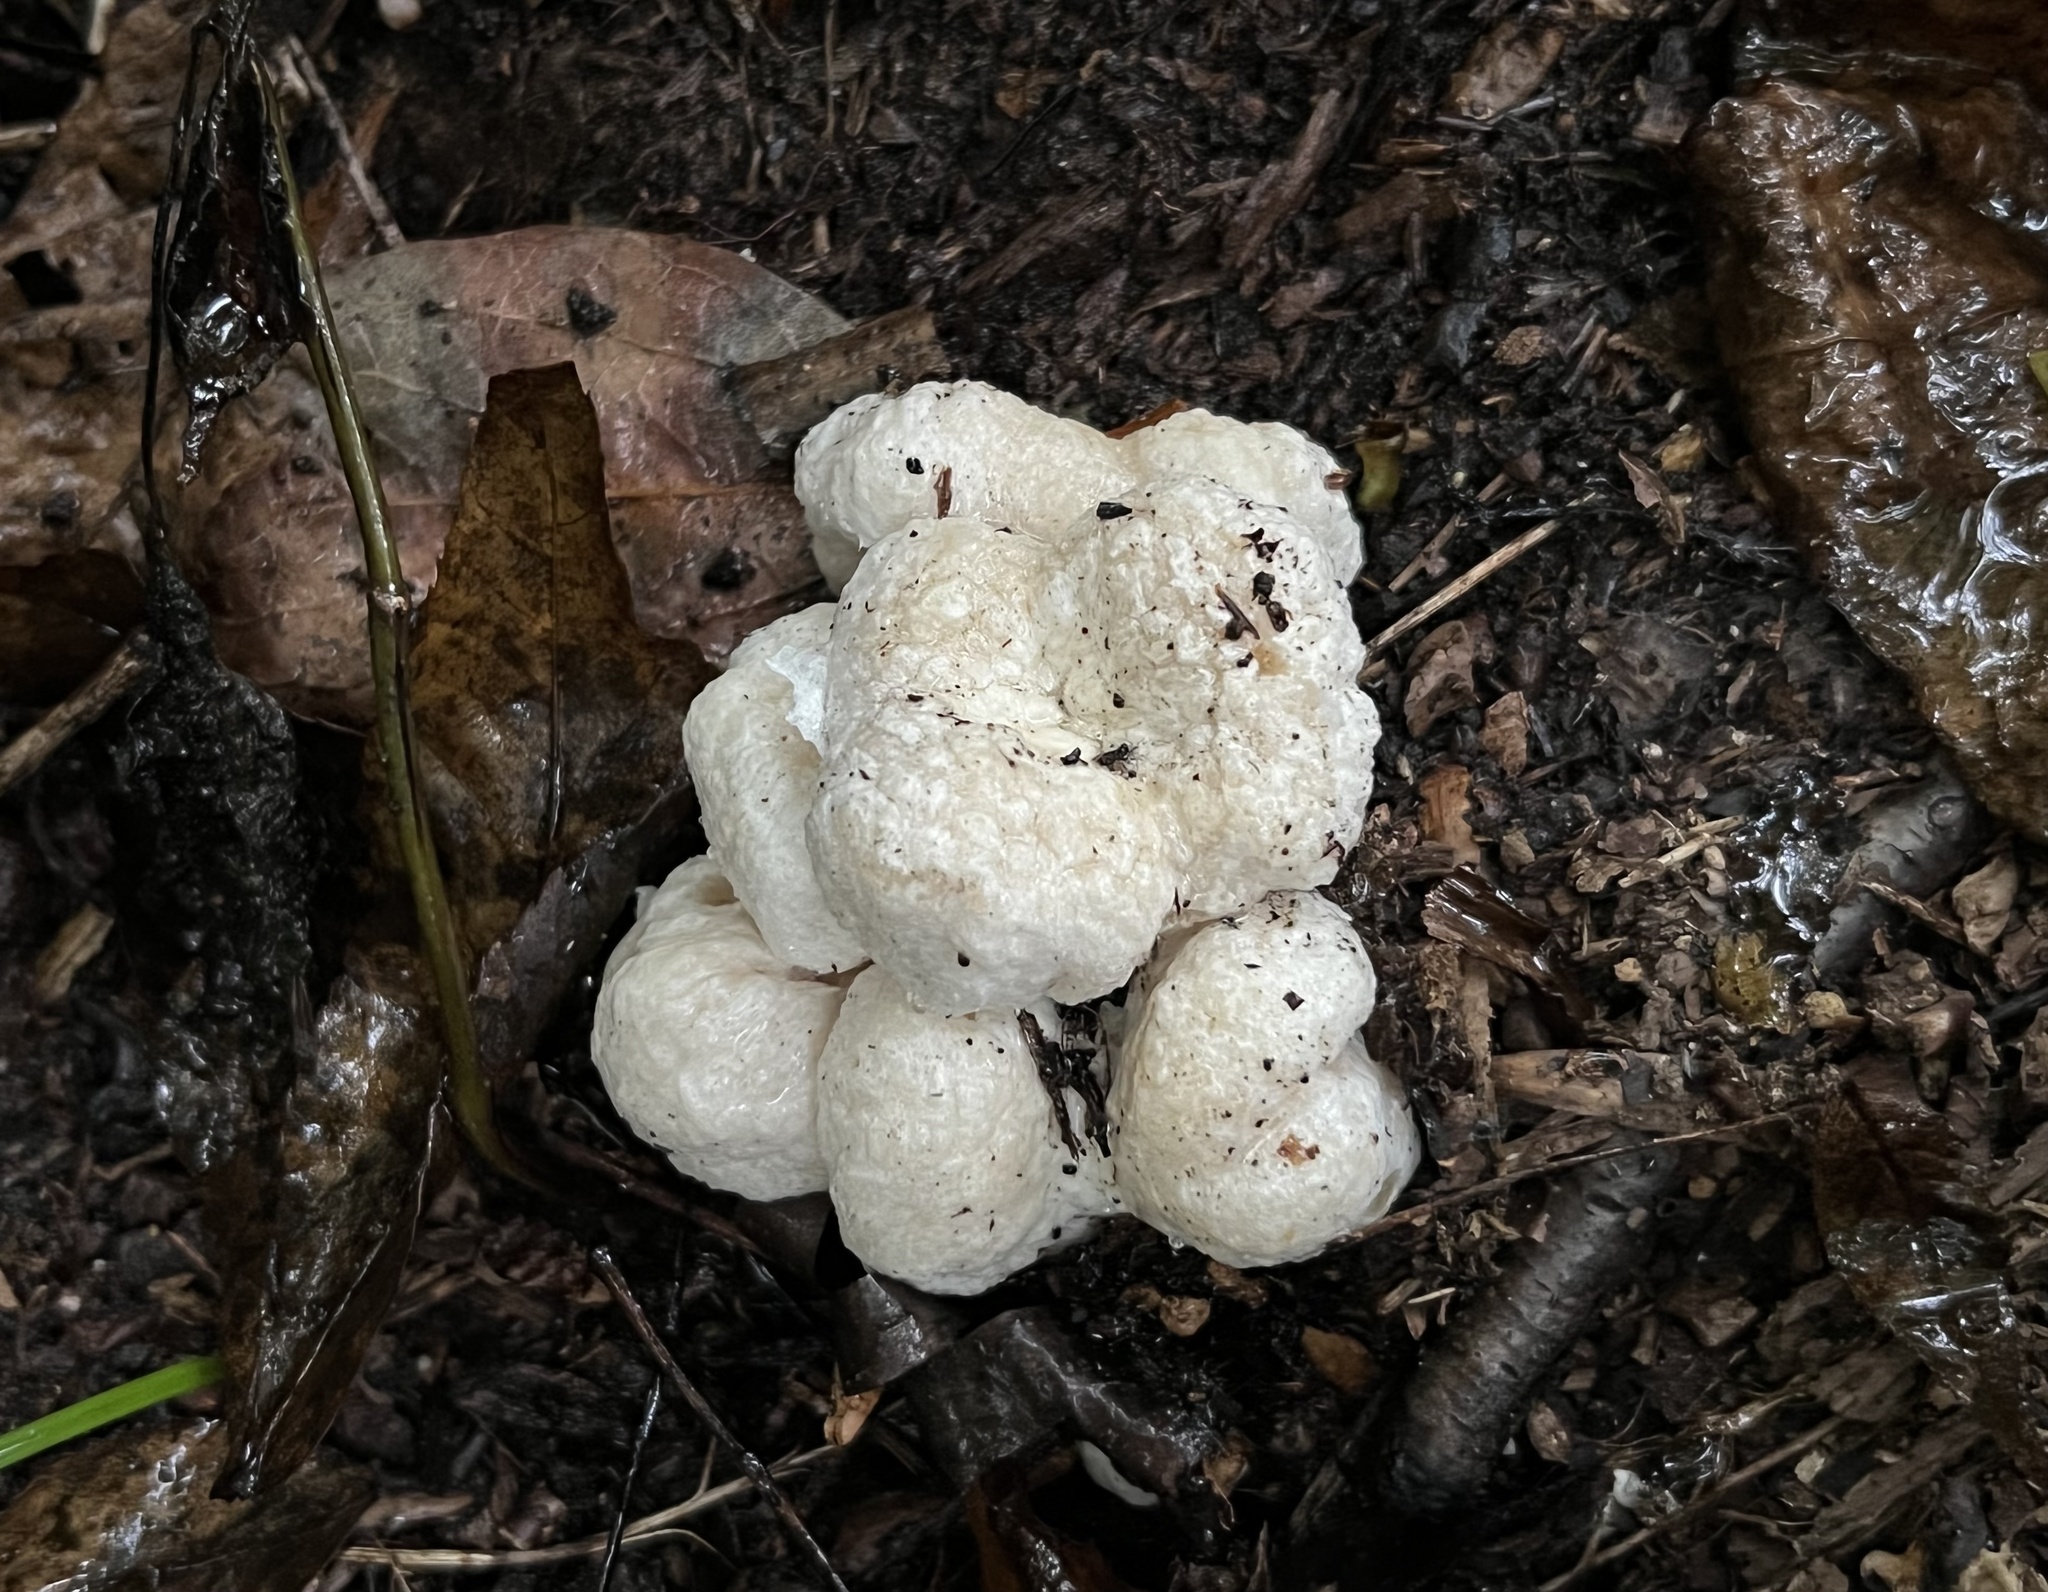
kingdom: Fungi
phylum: Basidiomycota
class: Agaricomycetes
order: Agaricales
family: Entolomataceae
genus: Entoloma
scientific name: Entoloma abortivum
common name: Aborted entoloma
